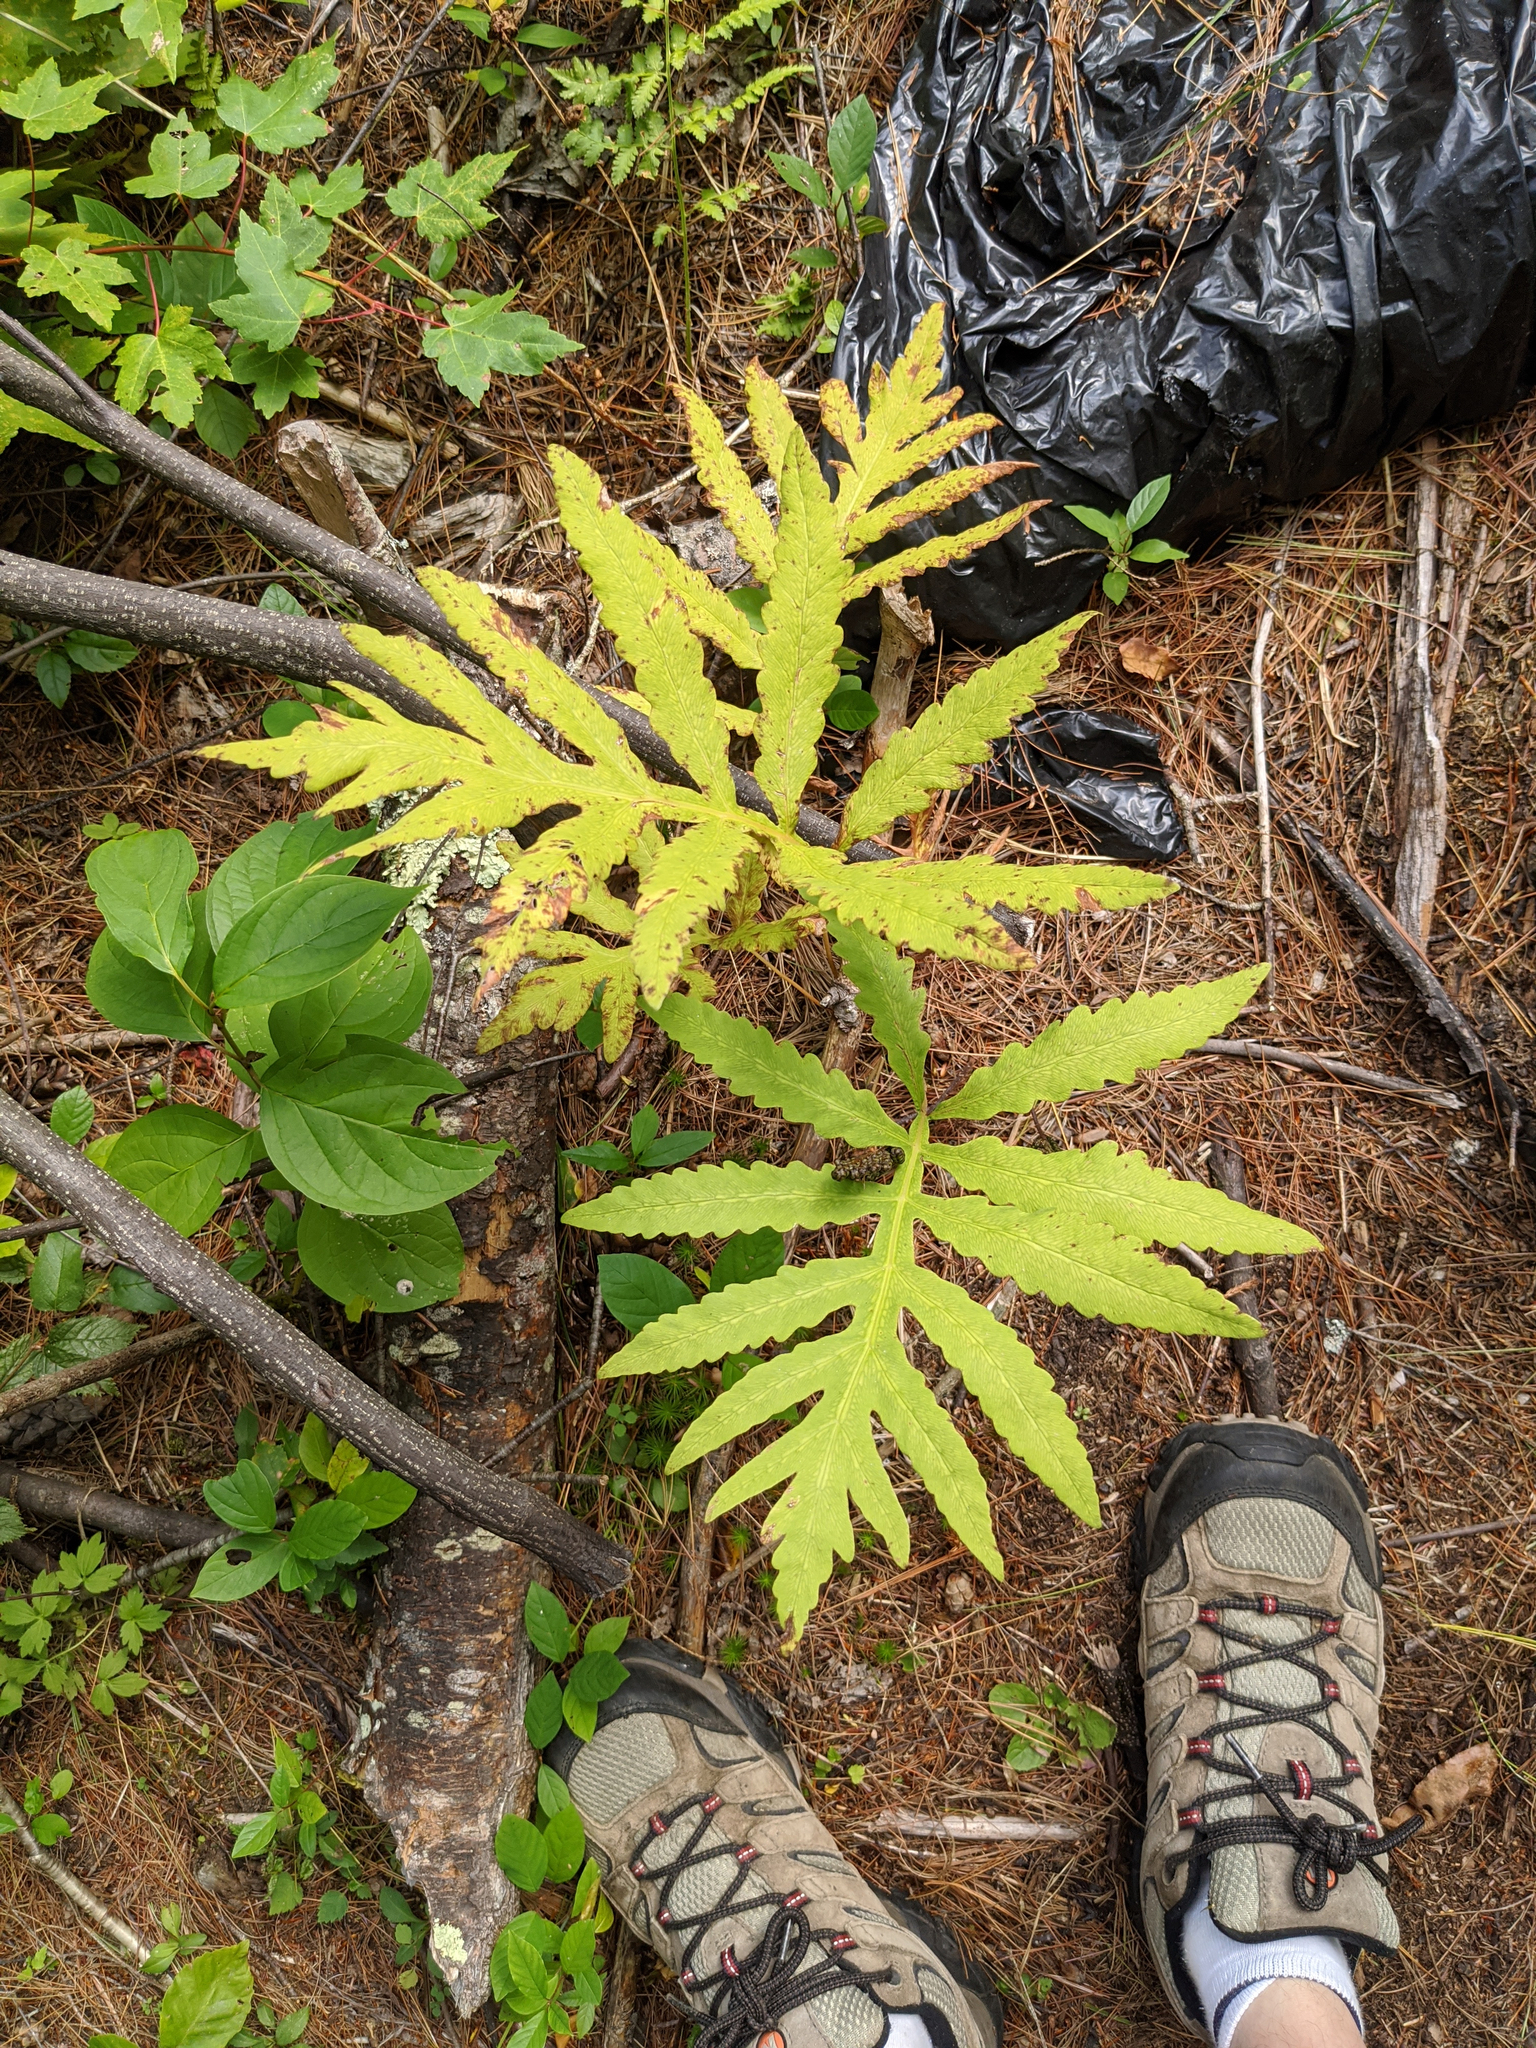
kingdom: Plantae
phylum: Tracheophyta
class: Polypodiopsida
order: Polypodiales
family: Onocleaceae
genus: Onoclea
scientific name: Onoclea sensibilis
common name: Sensitive fern
